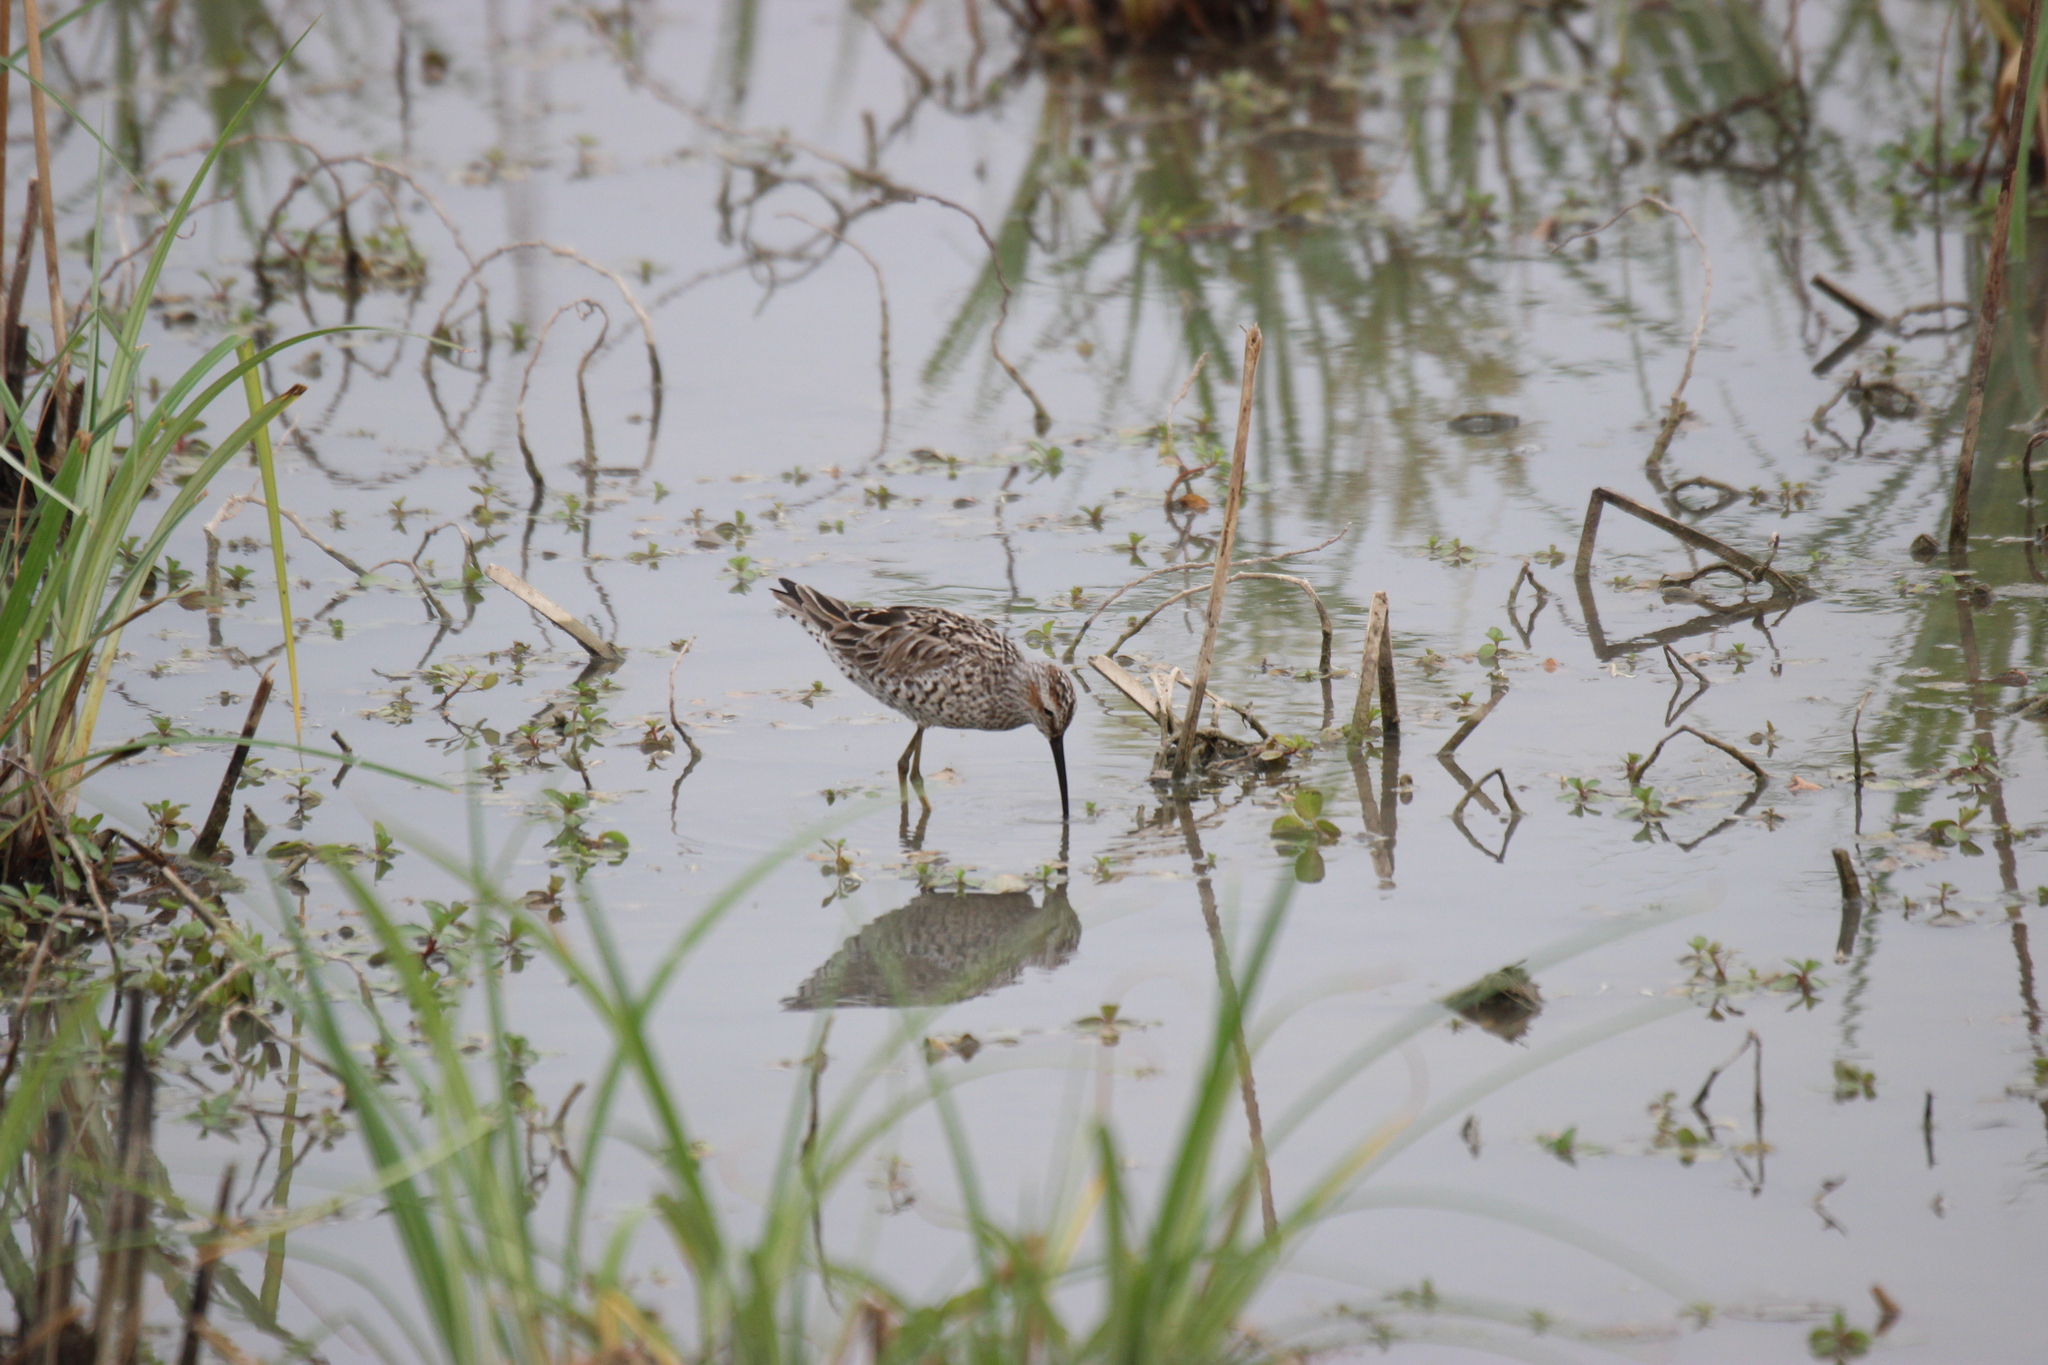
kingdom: Animalia
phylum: Chordata
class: Aves
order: Charadriiformes
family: Scolopacidae
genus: Calidris
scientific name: Calidris himantopus
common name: Stilt sandpiper
